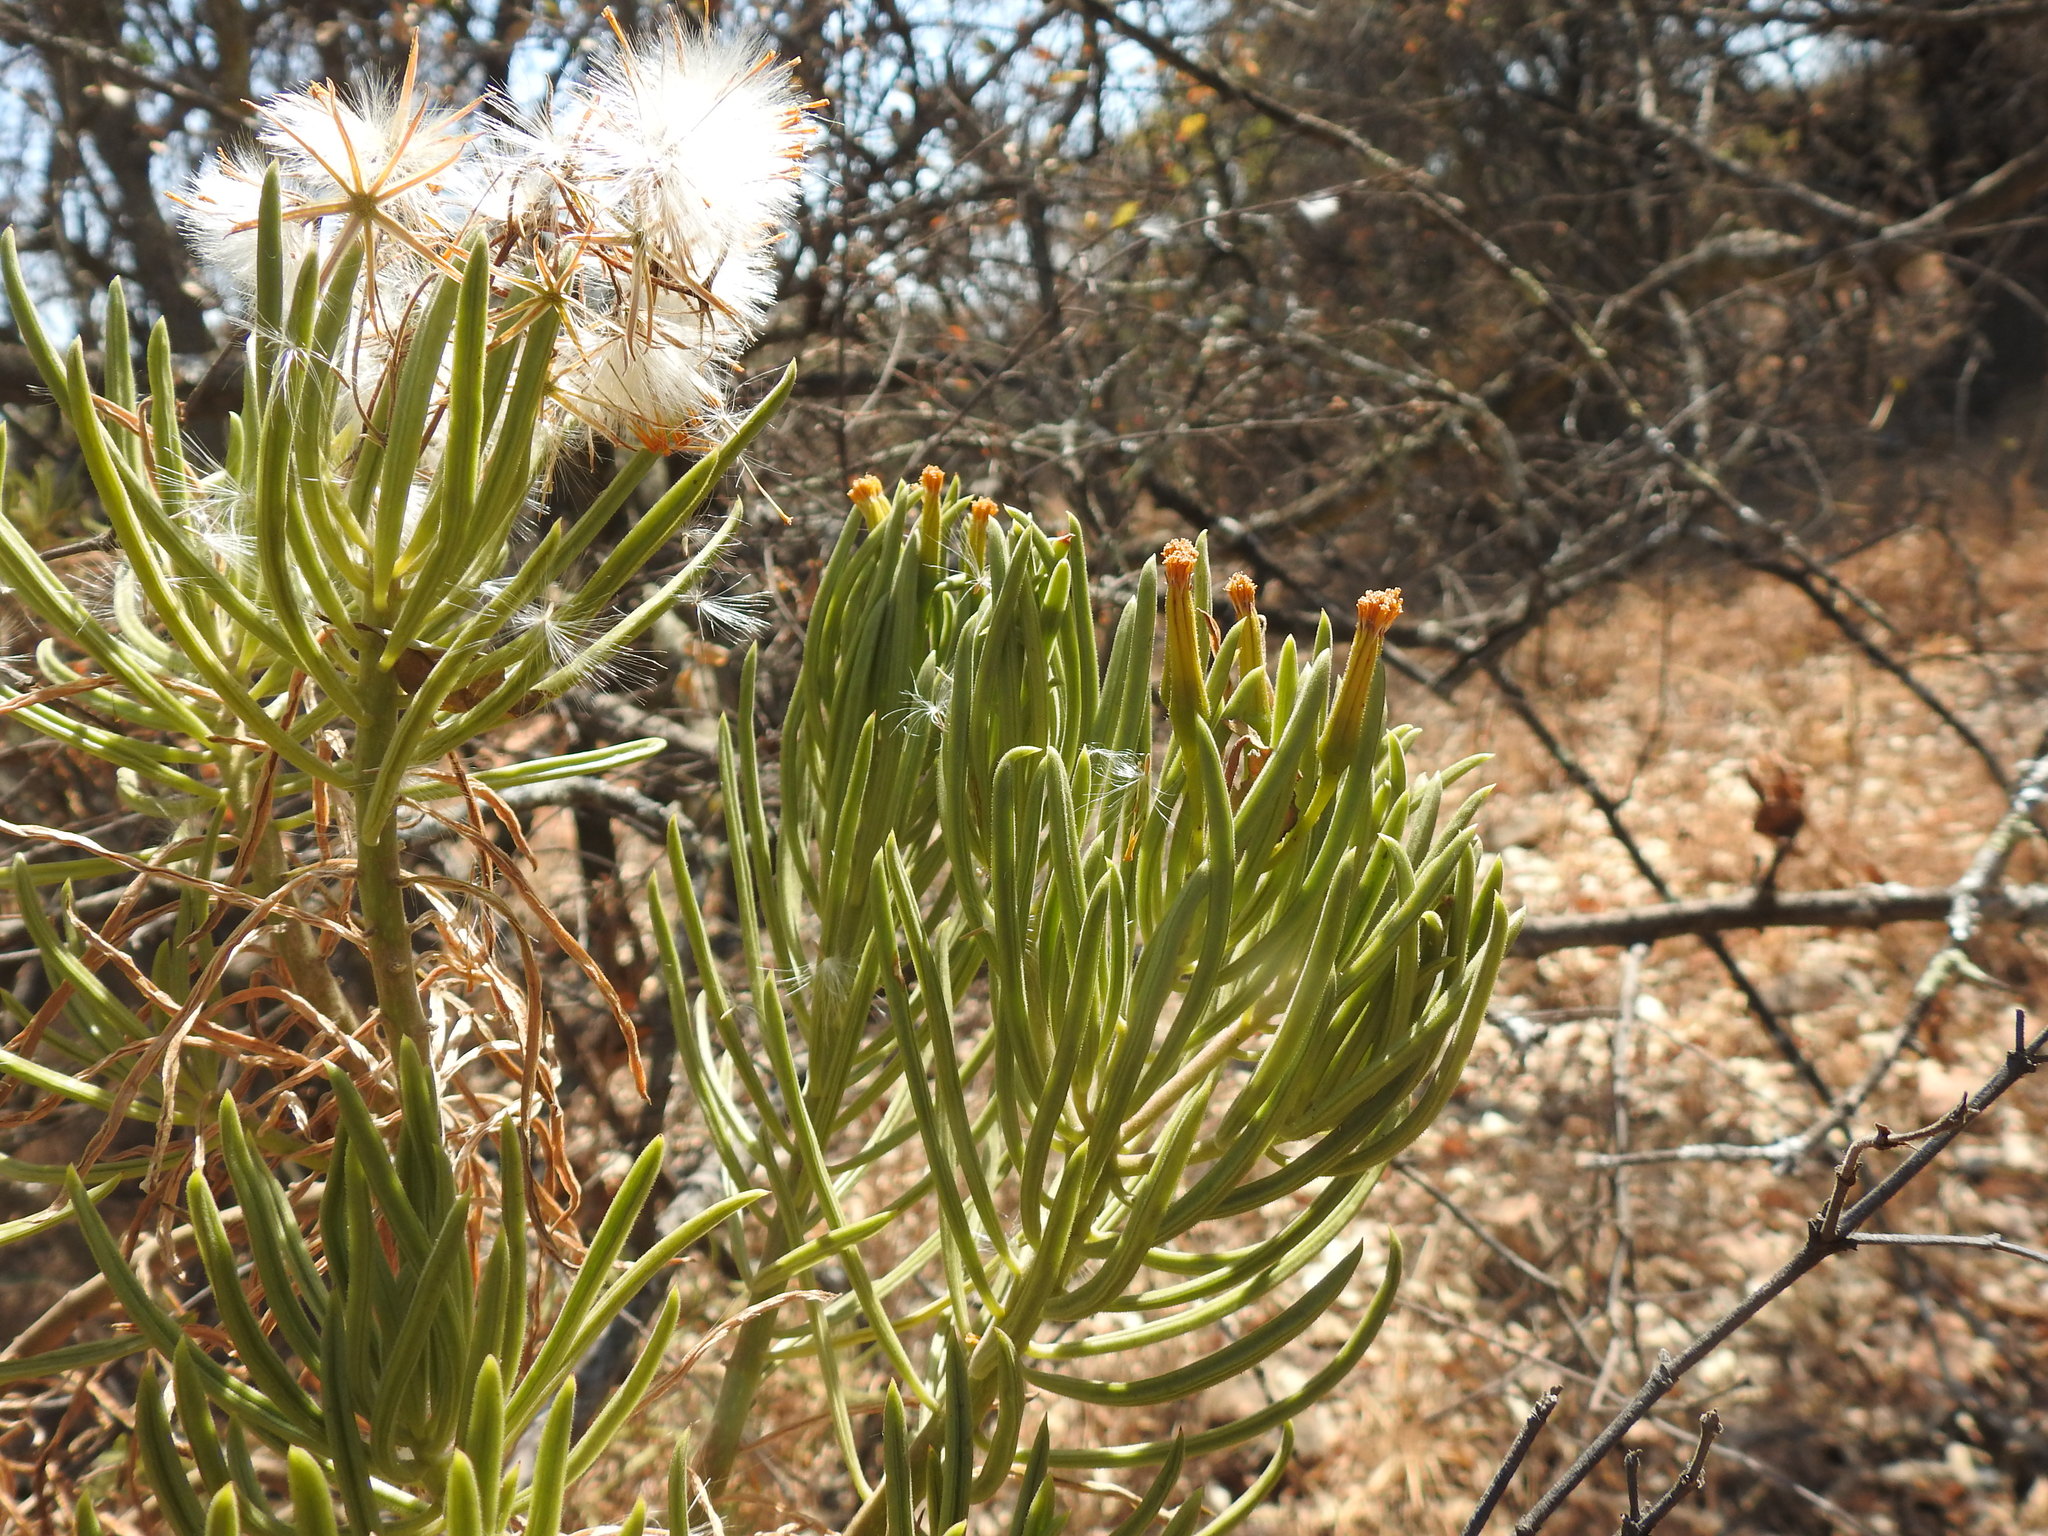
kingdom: Plantae
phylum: Tracheophyta
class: Magnoliopsida
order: Asterales
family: Asteraceae
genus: Kleinia
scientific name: Kleinia barbertonica
